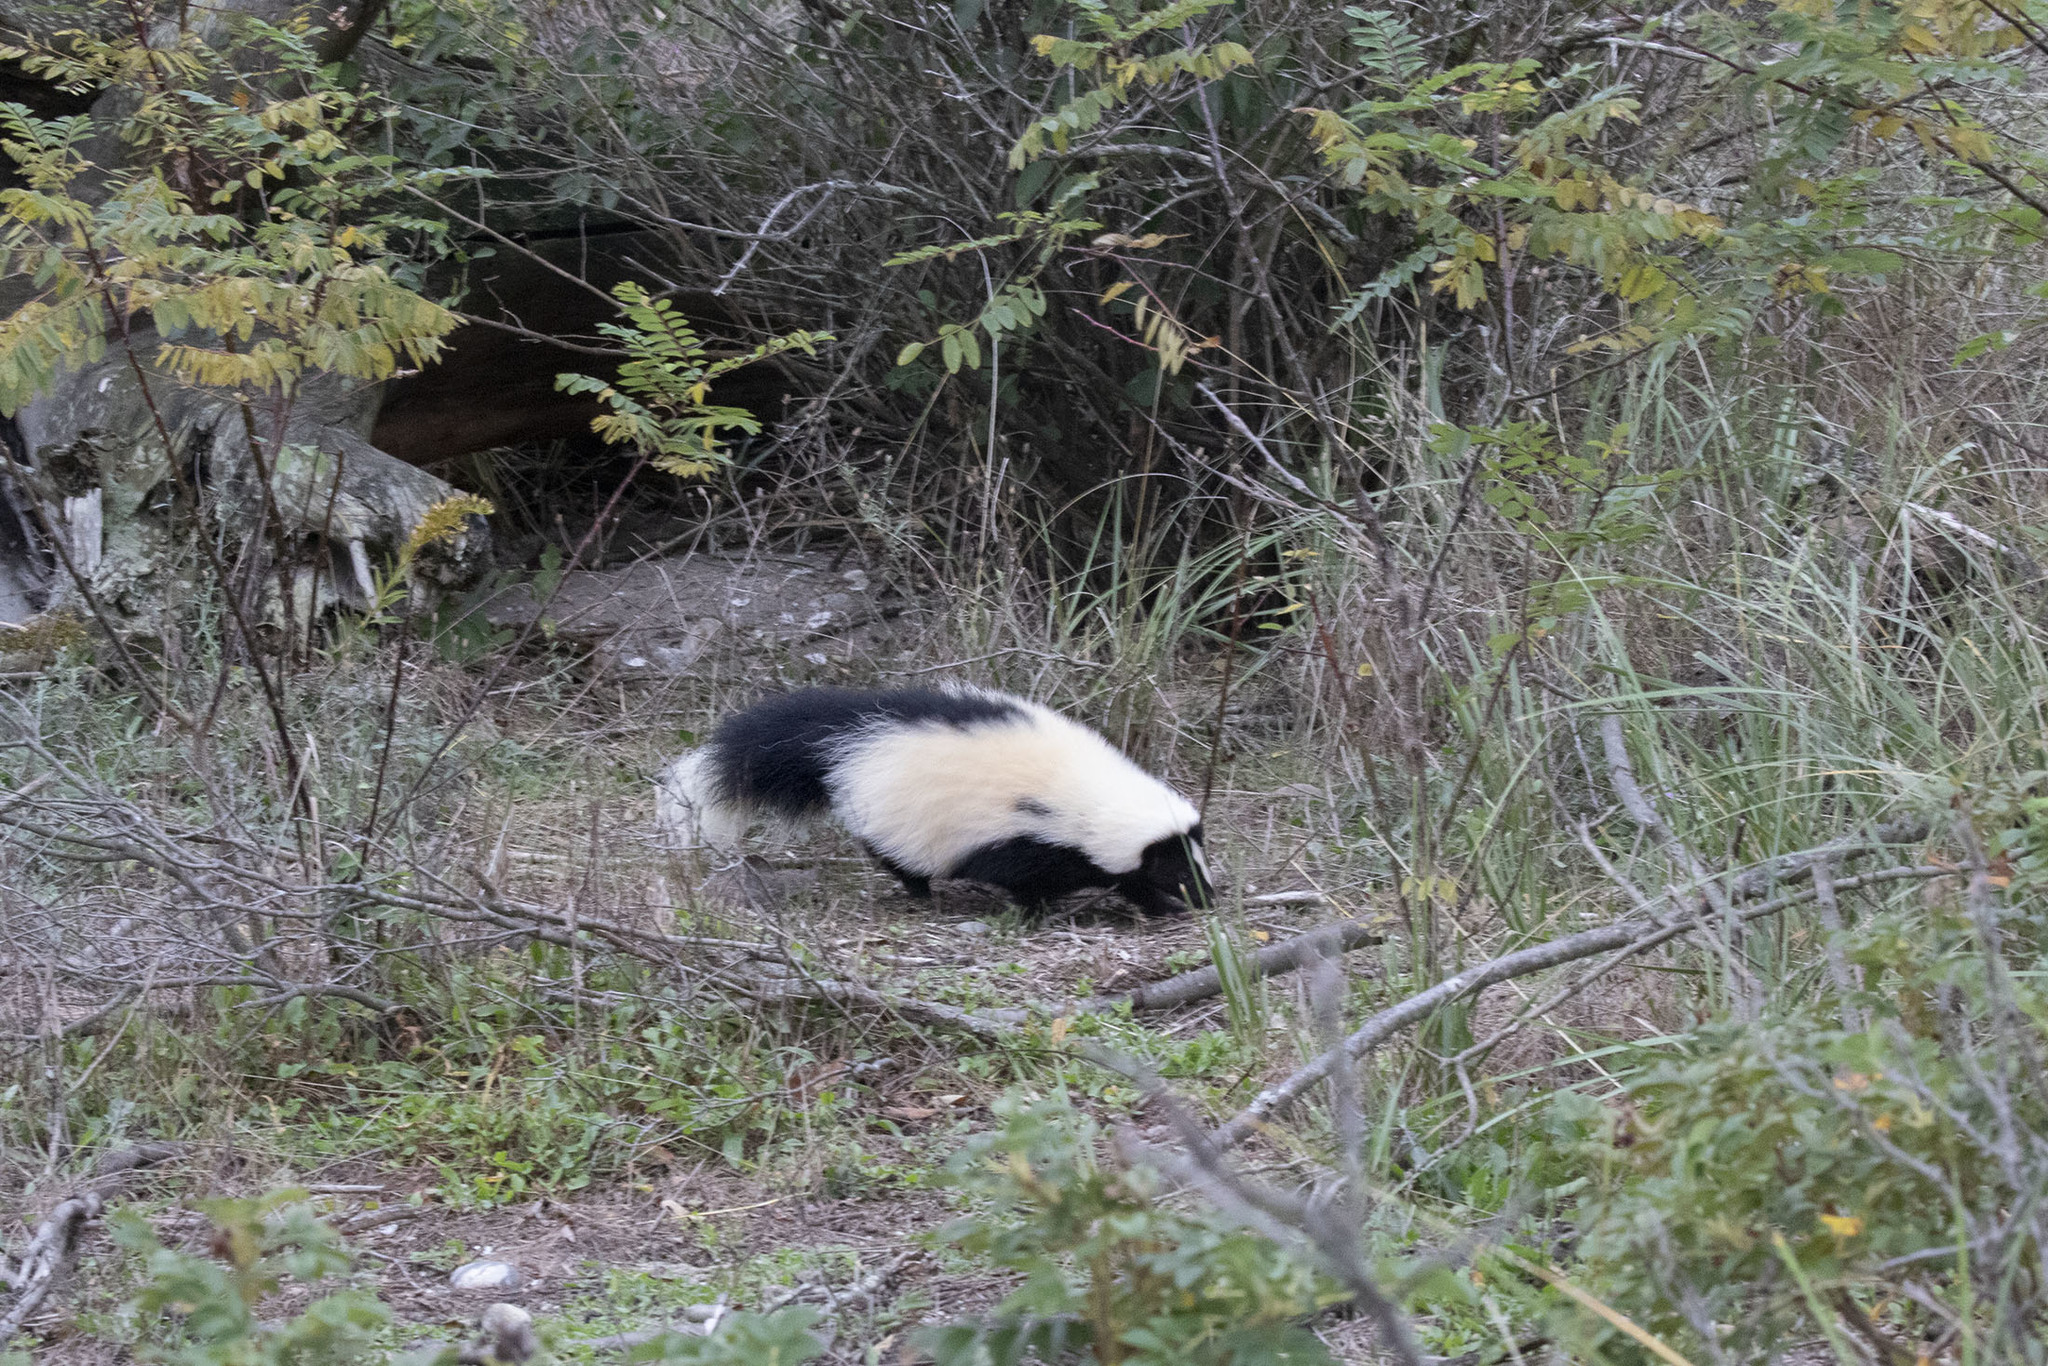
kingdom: Animalia
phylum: Chordata
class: Mammalia
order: Carnivora
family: Mephitidae
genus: Mephitis
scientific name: Mephitis mephitis
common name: Striped skunk
